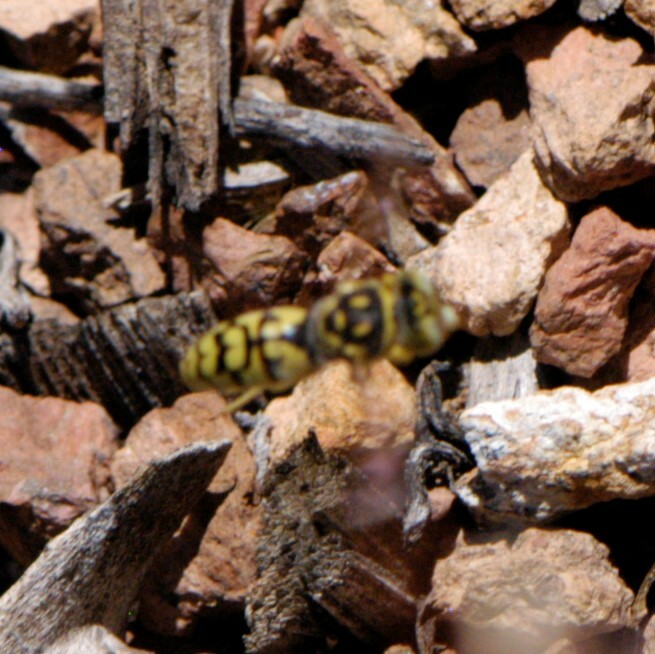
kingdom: Animalia
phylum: Arthropoda
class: Insecta
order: Hymenoptera
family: Crabronidae
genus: Steniolia
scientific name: Steniolia
